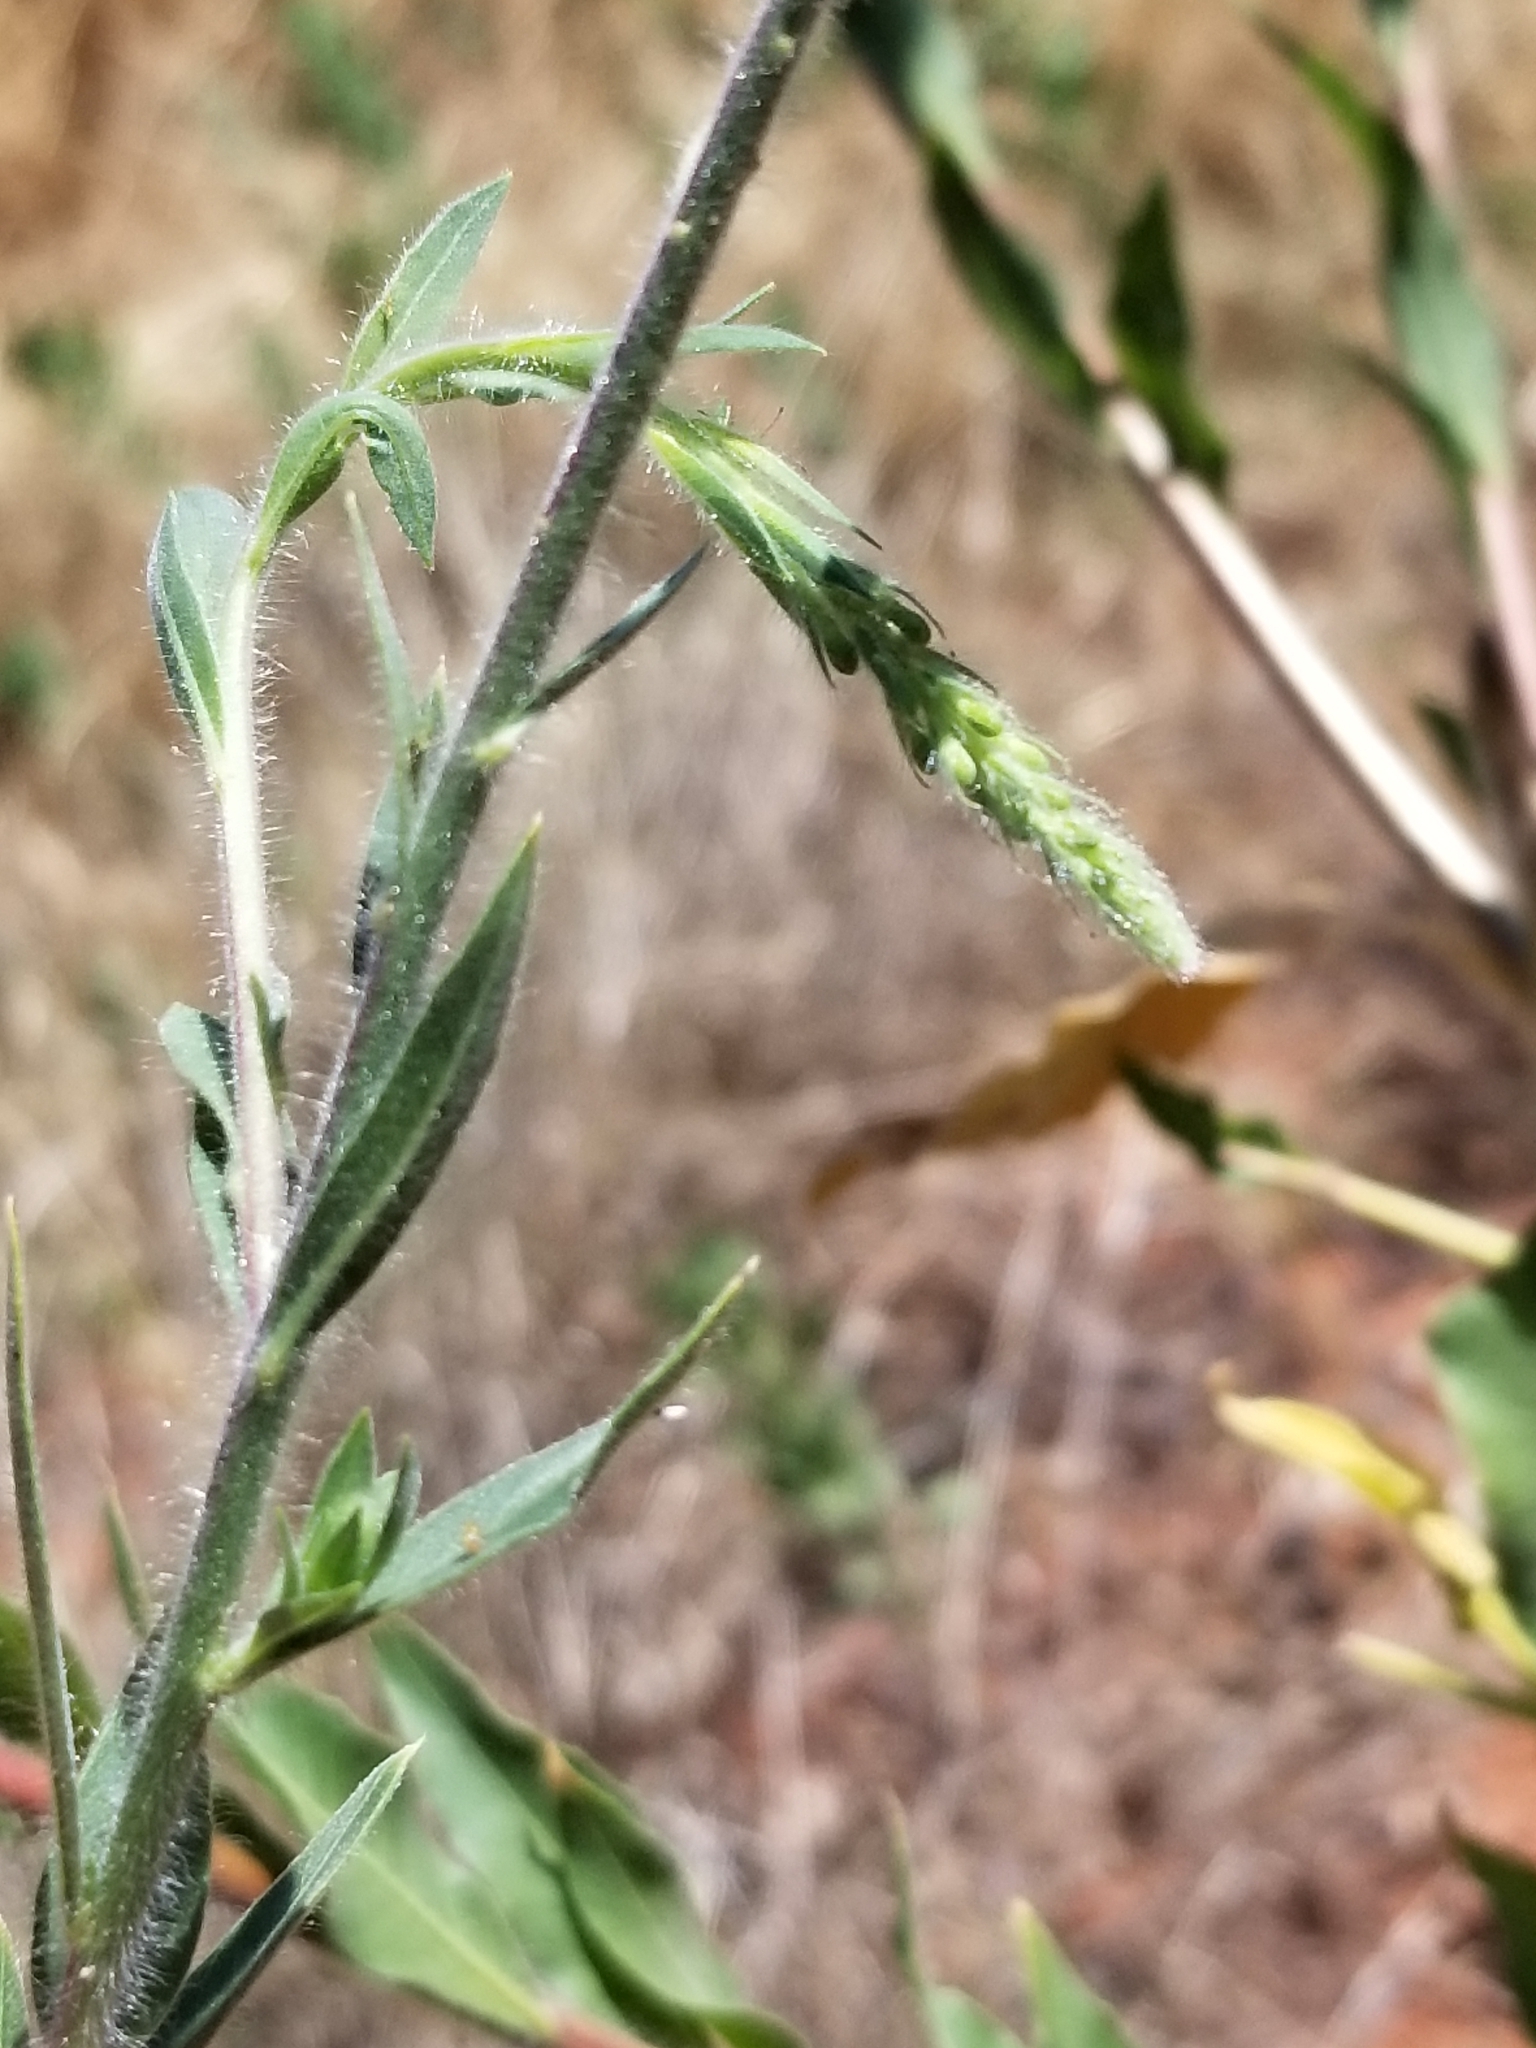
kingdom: Plantae
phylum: Tracheophyta
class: Magnoliopsida
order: Myrtales
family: Onagraceae
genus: Oenothera
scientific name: Oenothera curtiflora
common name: Velvetweed
